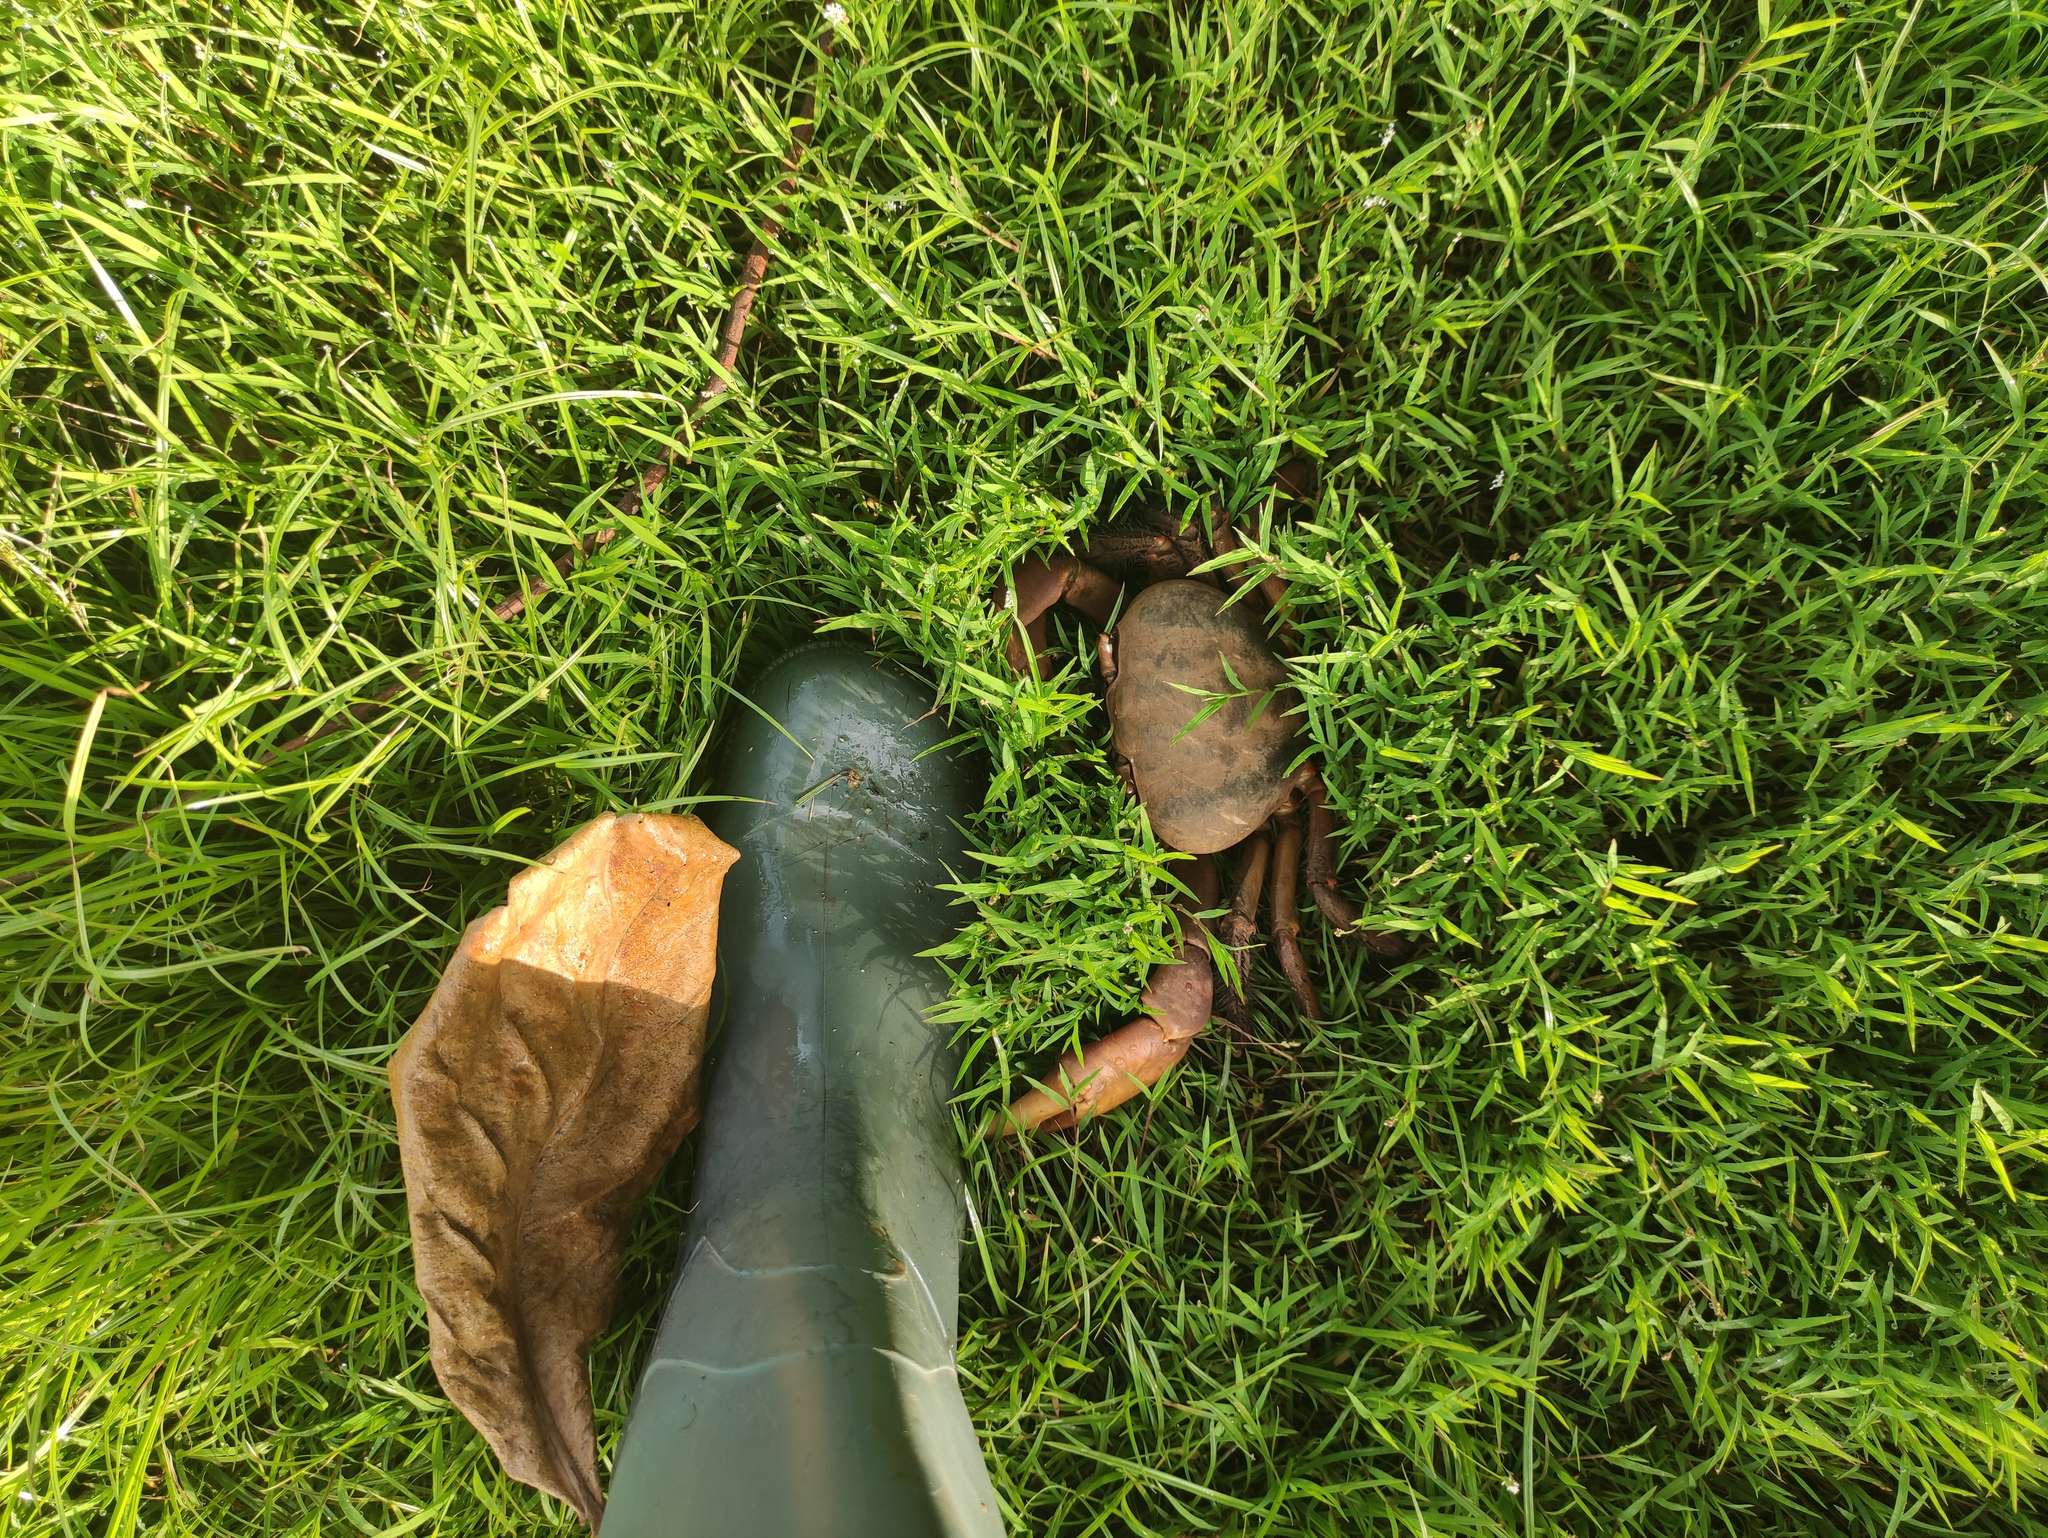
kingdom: Animalia
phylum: Arthropoda
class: Malacostraca
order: Decapoda
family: Gecarcinidae
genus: Cardisoma
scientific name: Cardisoma carnifex
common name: Brown land crab
